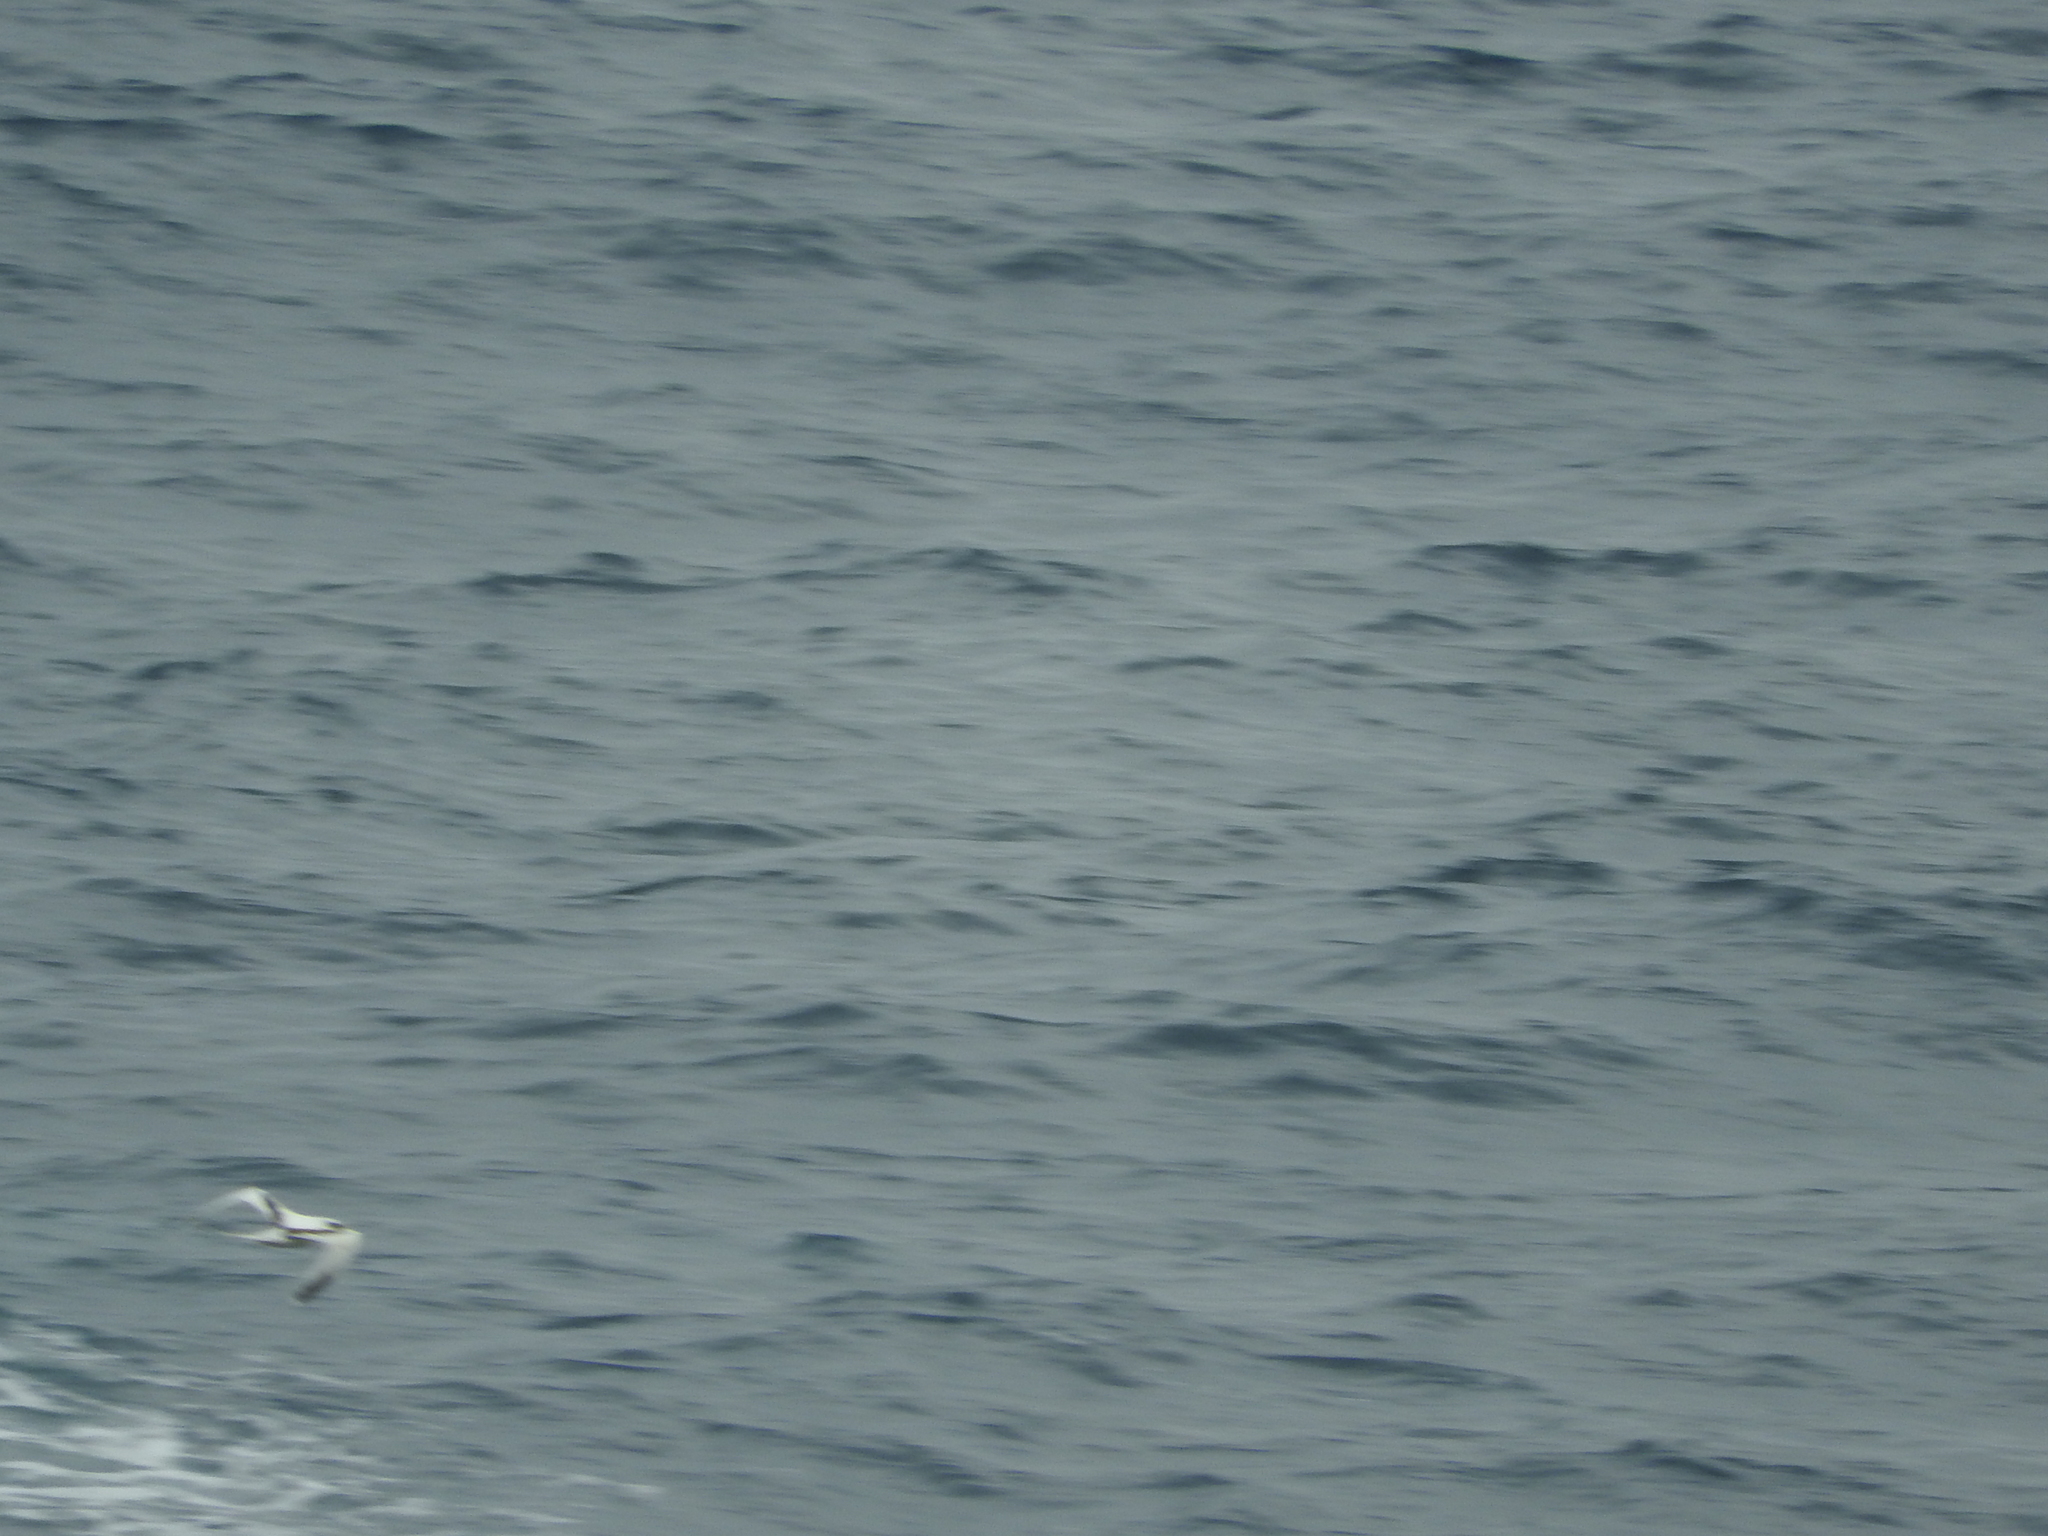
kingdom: Animalia
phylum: Chordata
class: Aves
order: Phaethontiformes
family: Phaethontidae
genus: Phaethon
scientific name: Phaethon lepturus
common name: White-tailed tropicbird
